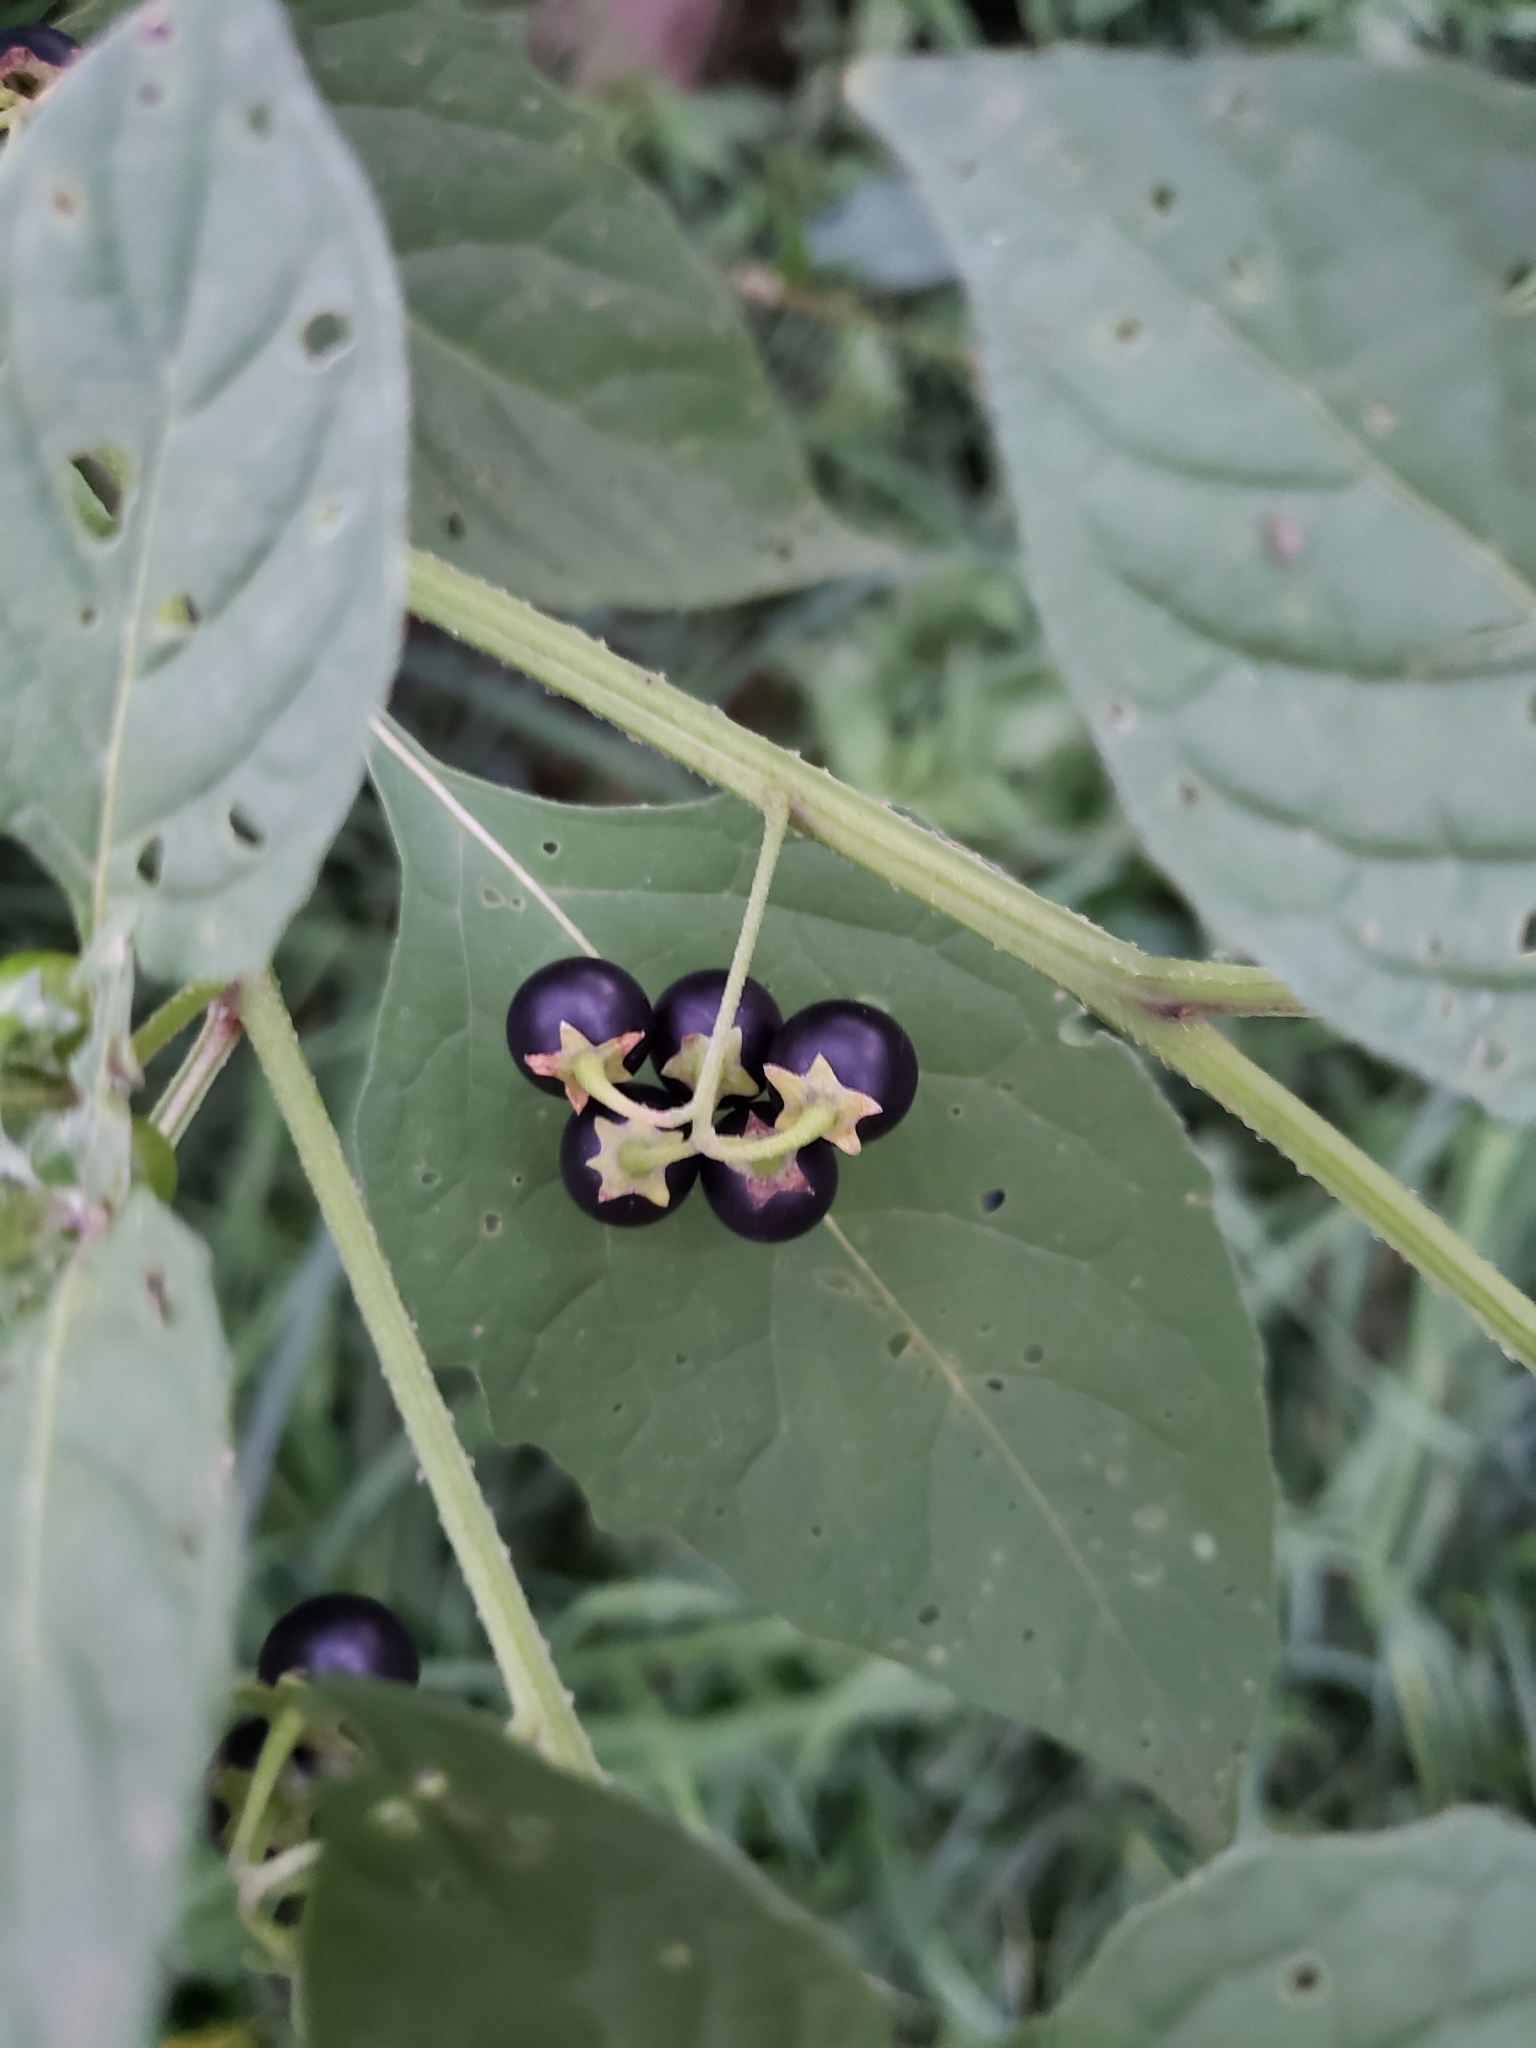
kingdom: Plantae
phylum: Tracheophyta
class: Magnoliopsida
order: Solanales
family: Solanaceae
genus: Solanum
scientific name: Solanum emulans
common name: Eastern black nightshade
